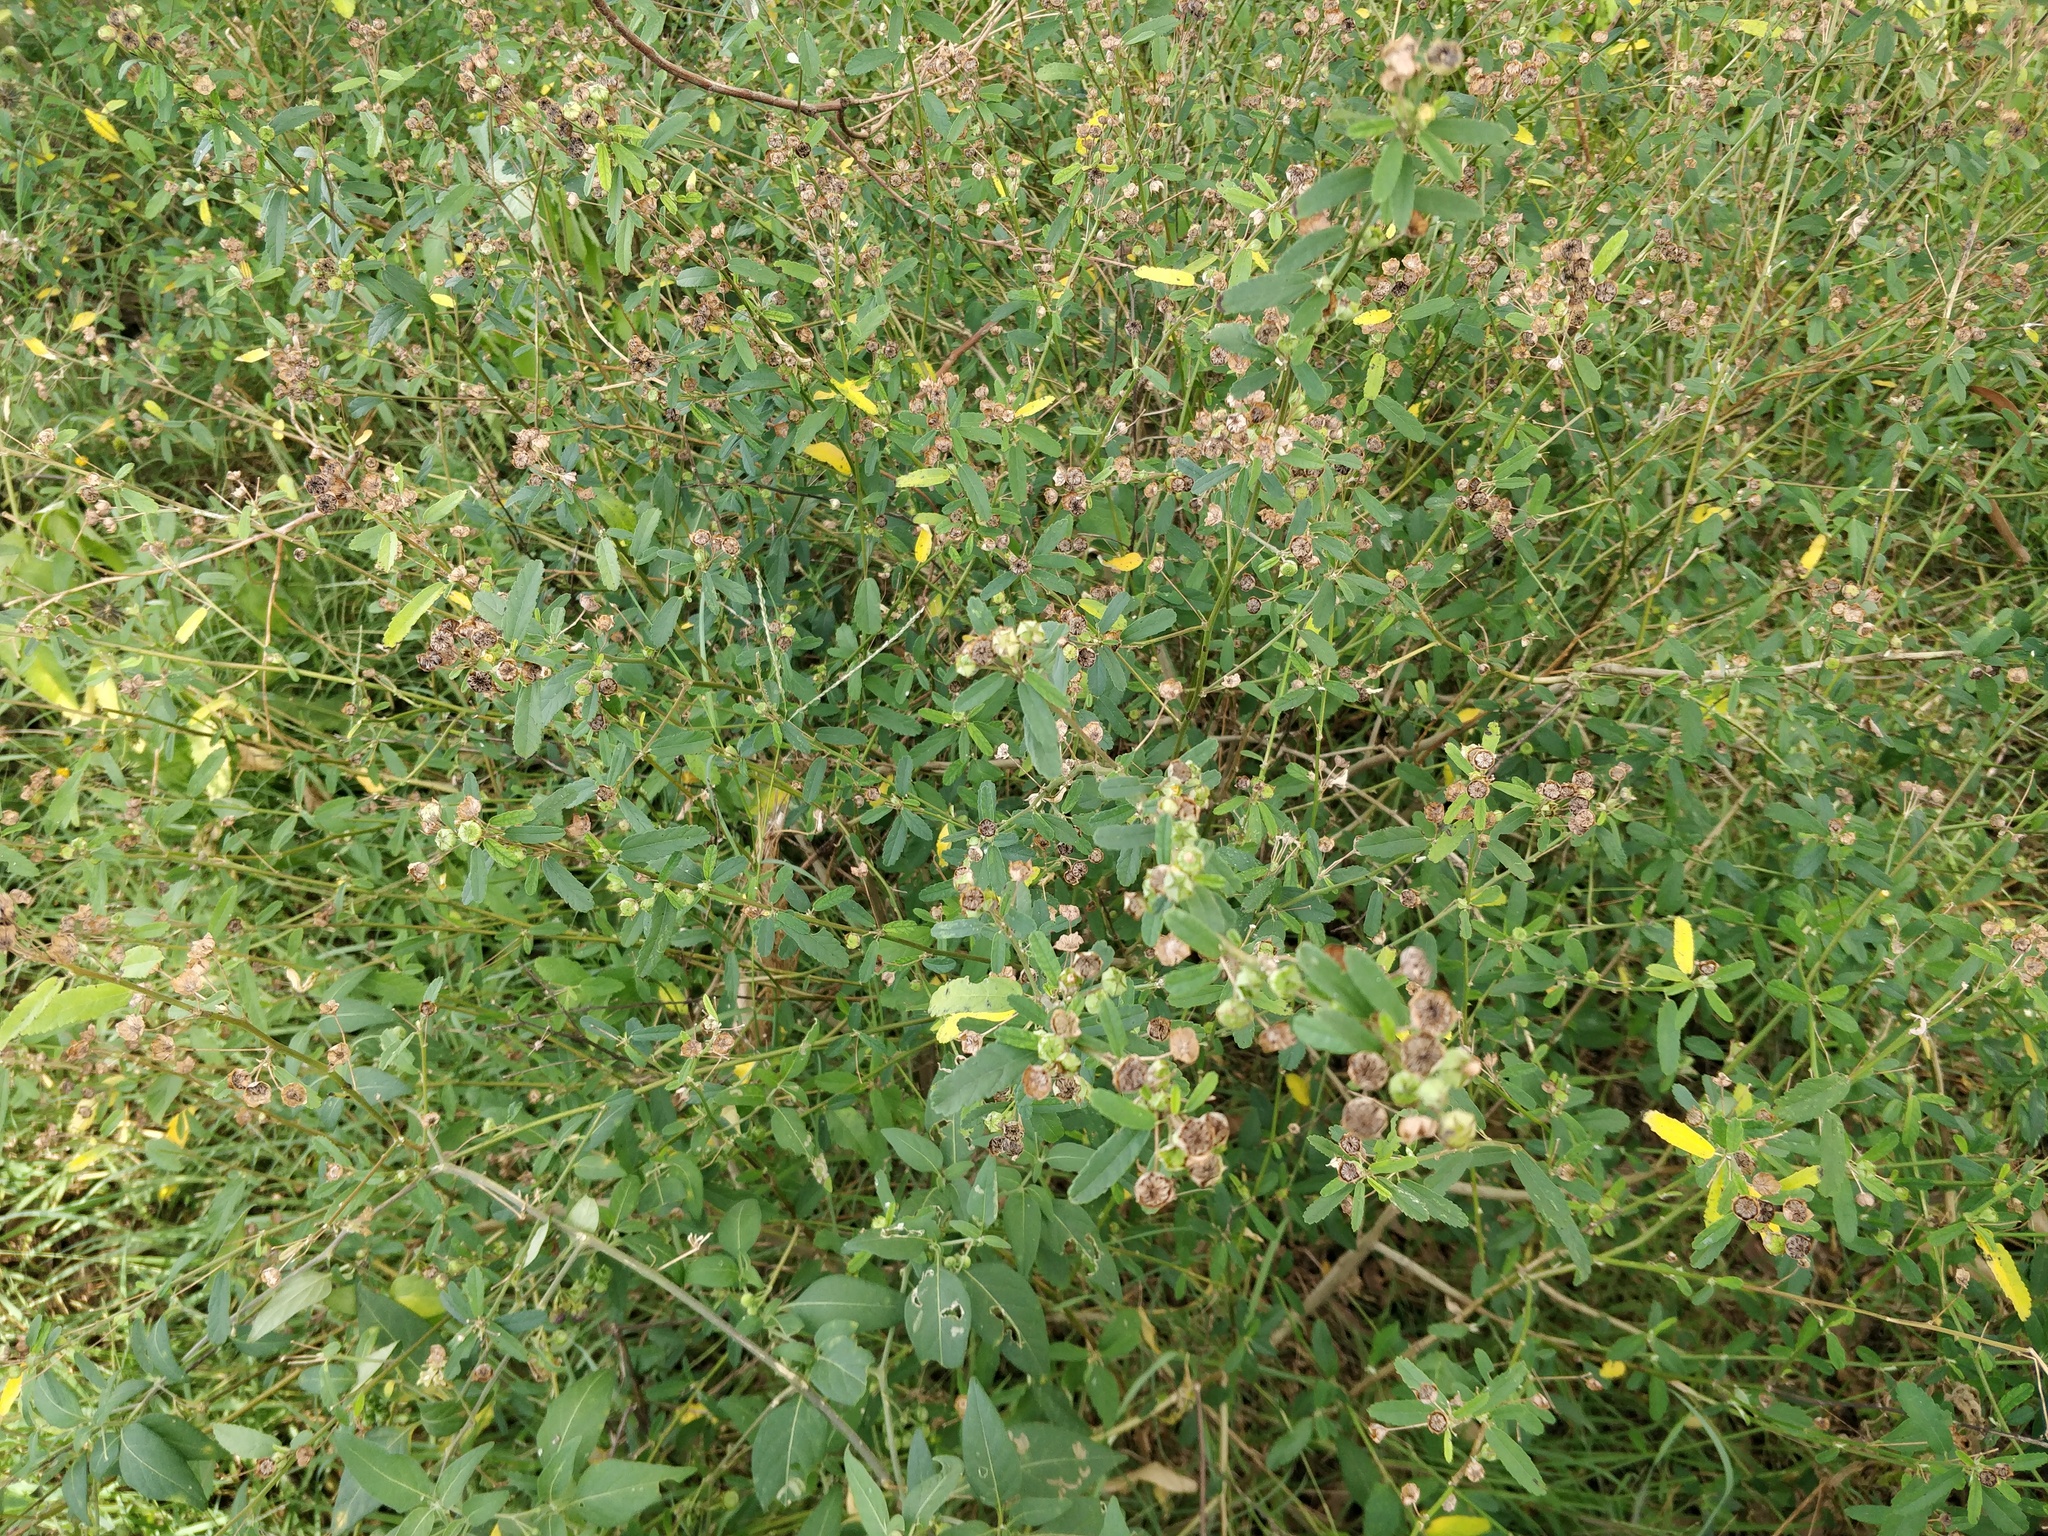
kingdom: Plantae
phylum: Tracheophyta
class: Magnoliopsida
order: Malvales
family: Malvaceae
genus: Sida
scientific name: Sida rhombifolia
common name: Queensland-hemp
